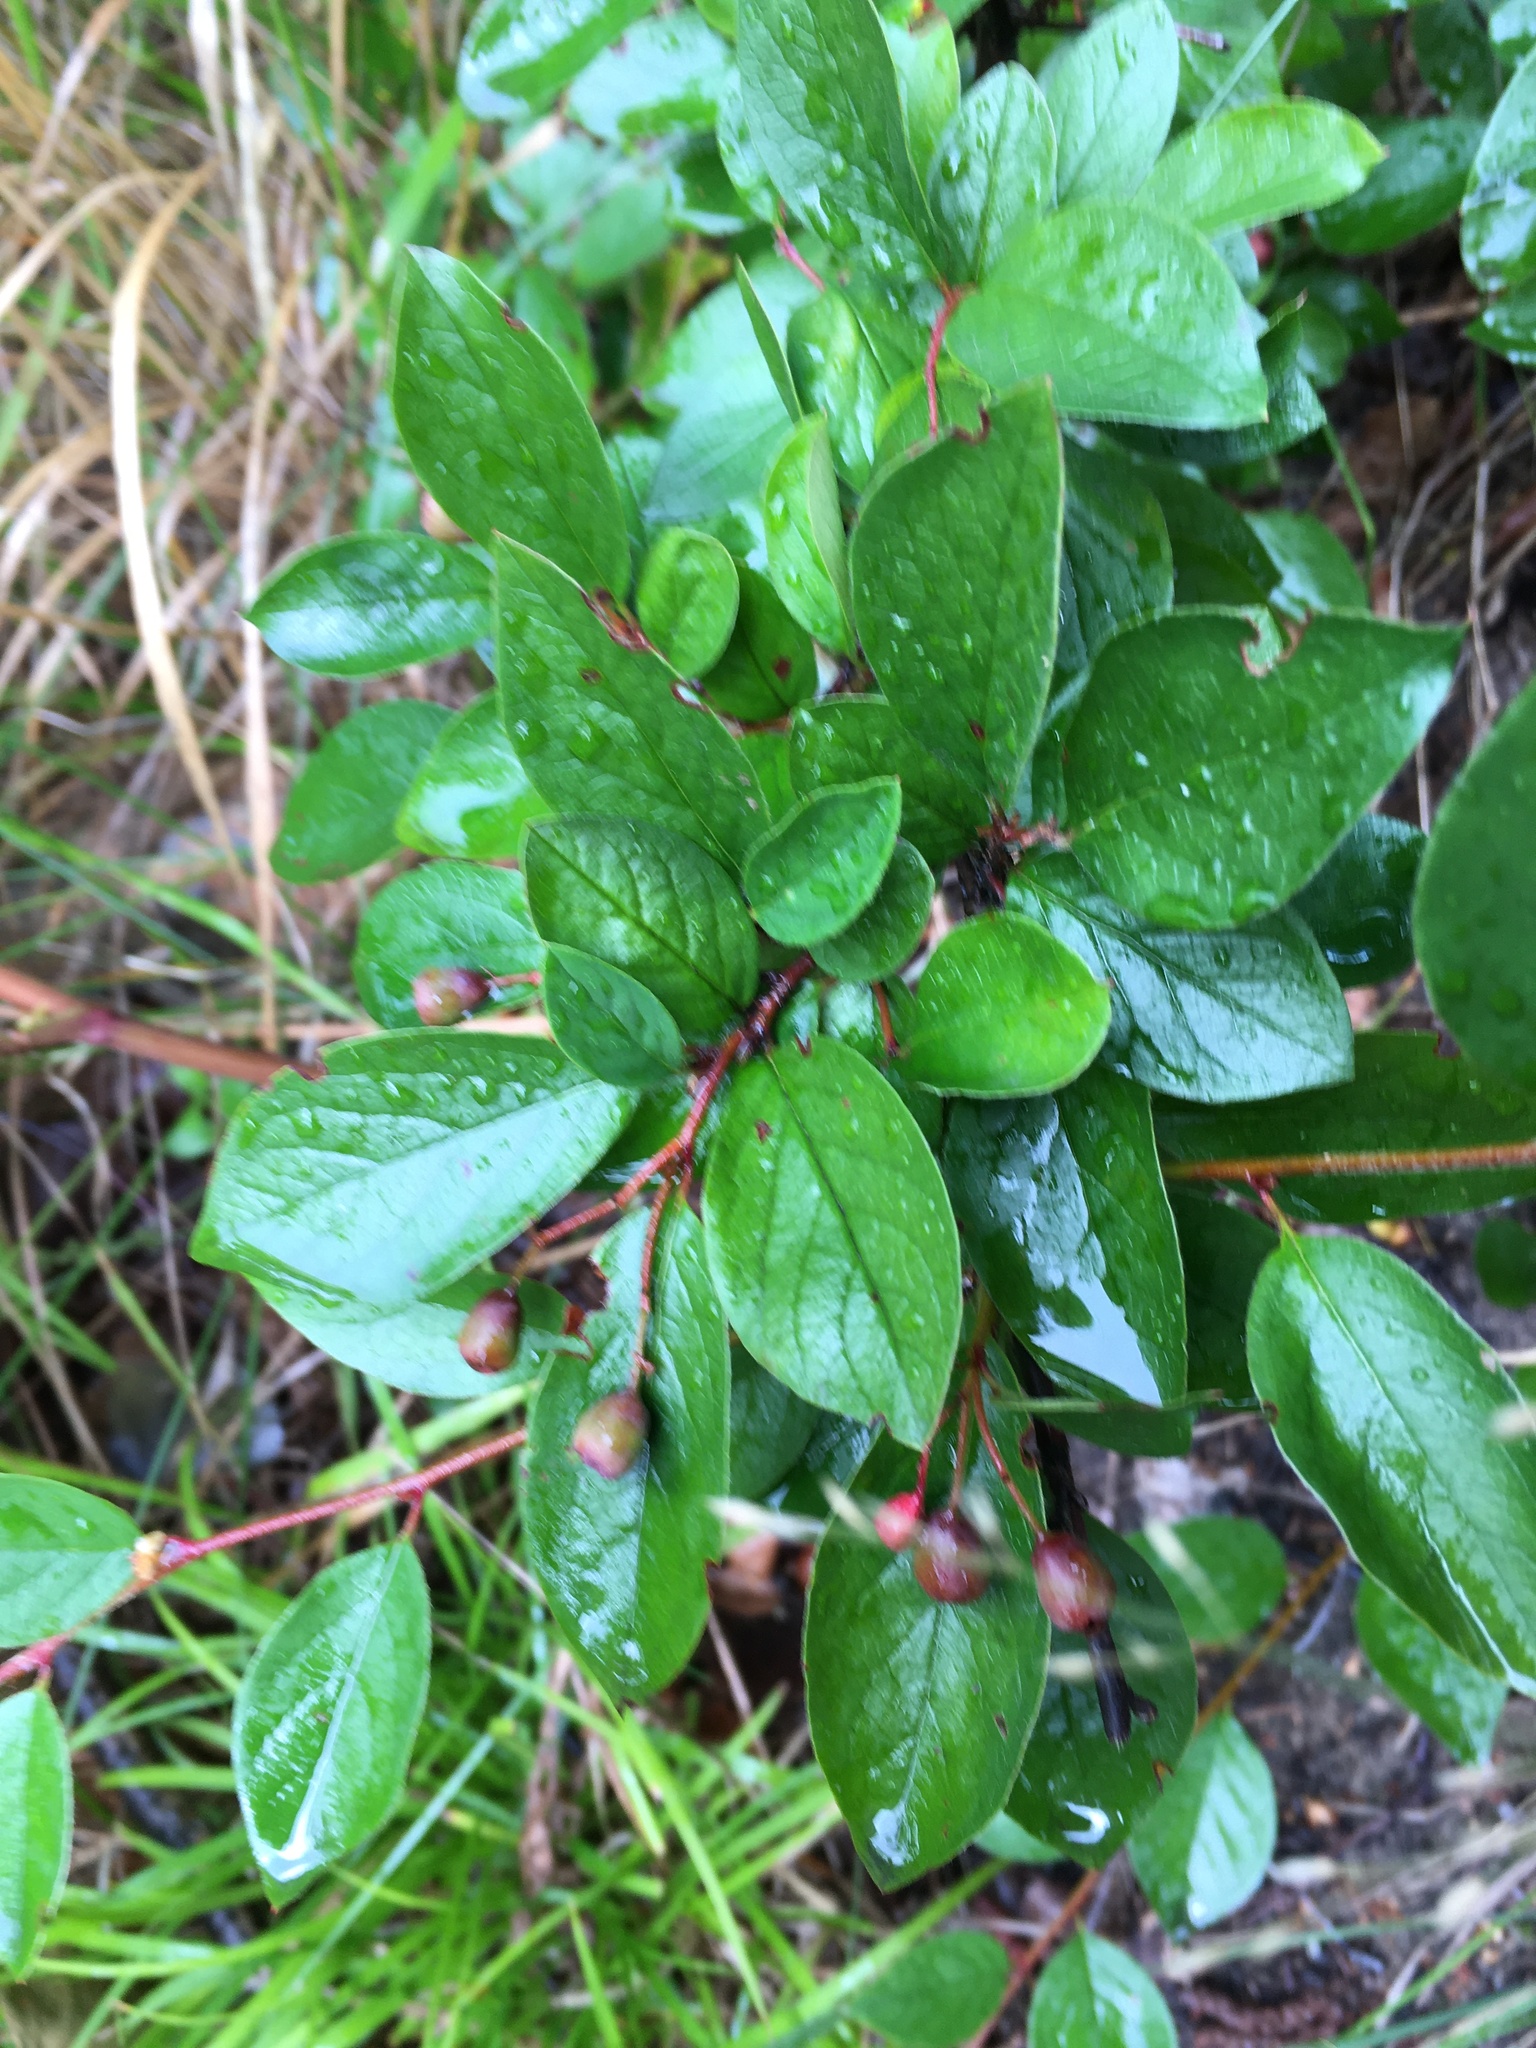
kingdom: Plantae
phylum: Tracheophyta
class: Magnoliopsida
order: Rosales
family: Rosaceae
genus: Cotoneaster
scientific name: Cotoneaster acutifolius
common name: Peking cotoneaster
